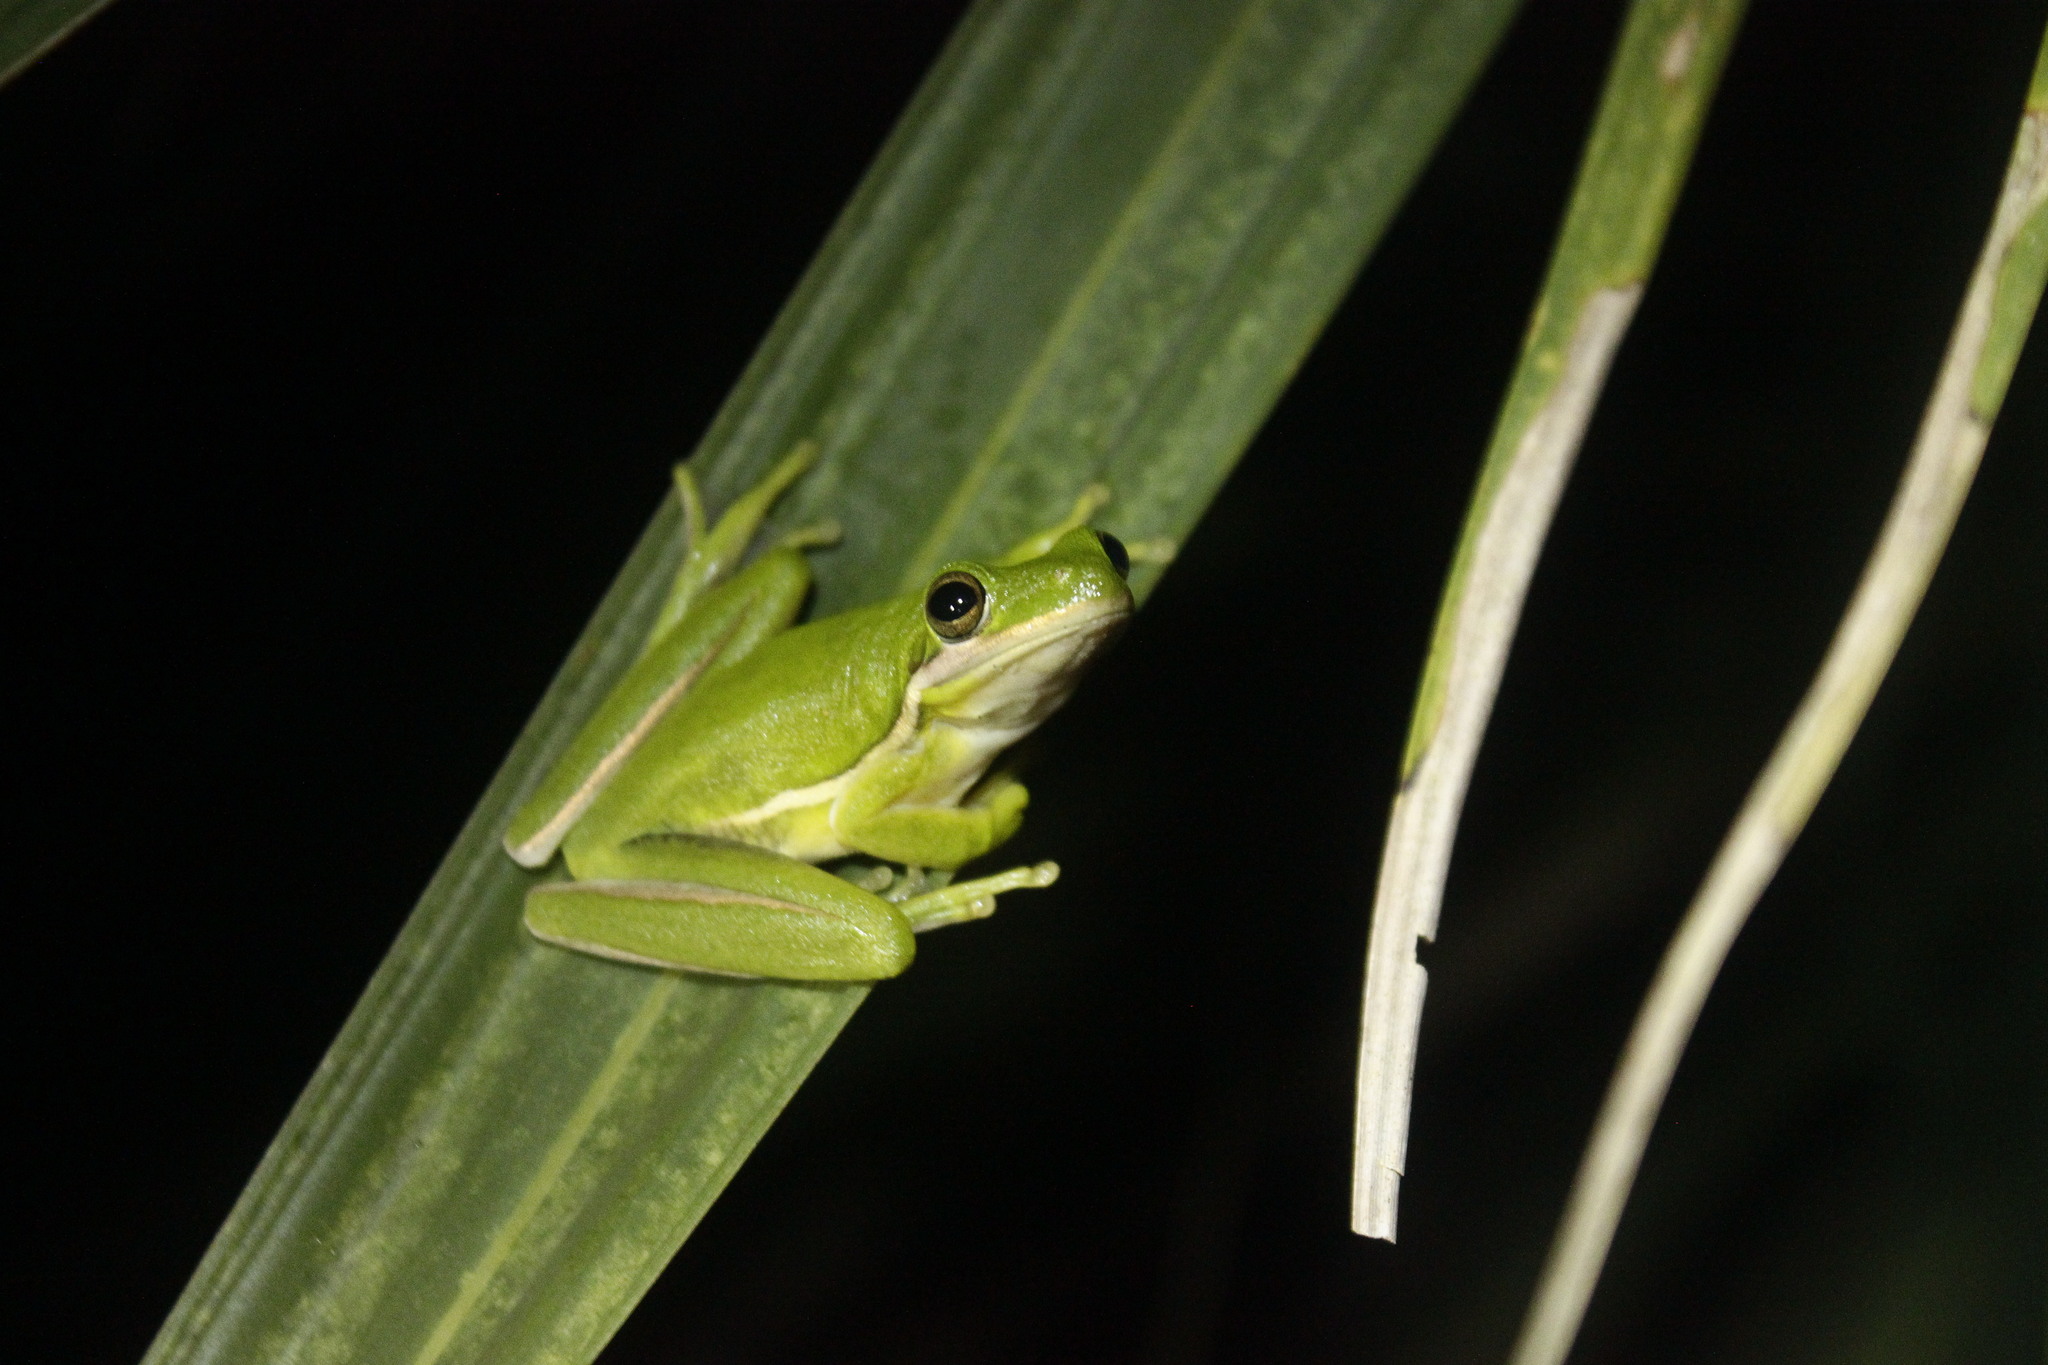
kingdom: Animalia
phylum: Chordata
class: Amphibia
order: Anura
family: Hylidae
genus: Dryophytes
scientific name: Dryophytes cinereus
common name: Green treefrog
